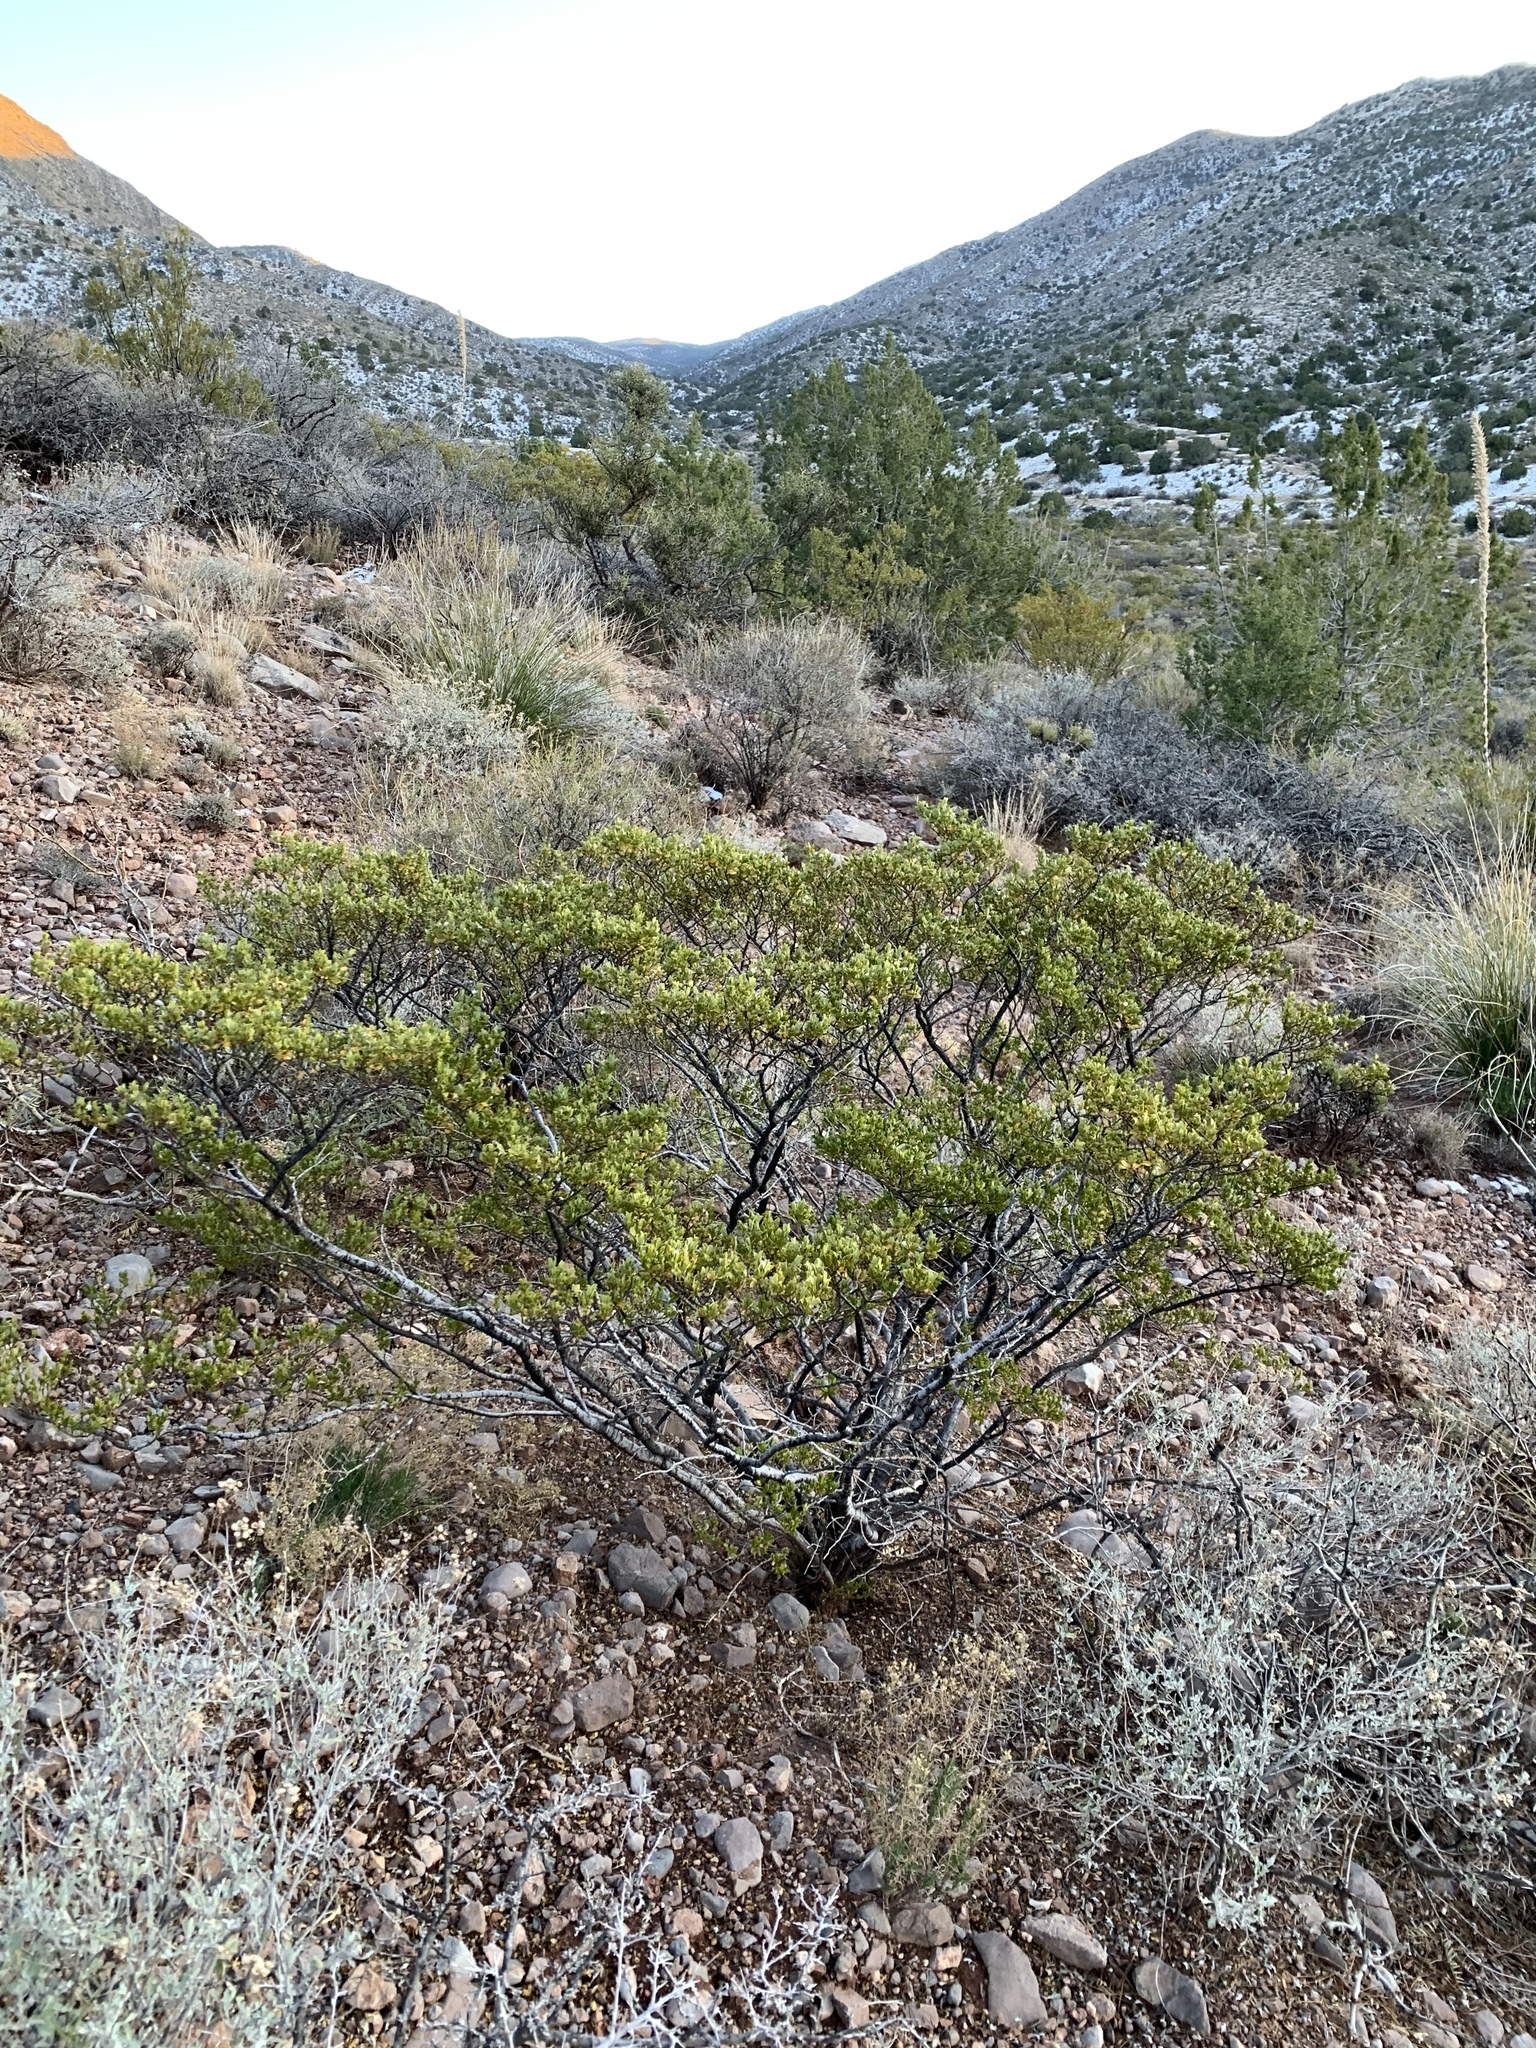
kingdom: Plantae
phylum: Tracheophyta
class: Magnoliopsida
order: Zygophyllales
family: Zygophyllaceae
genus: Larrea
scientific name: Larrea tridentata
